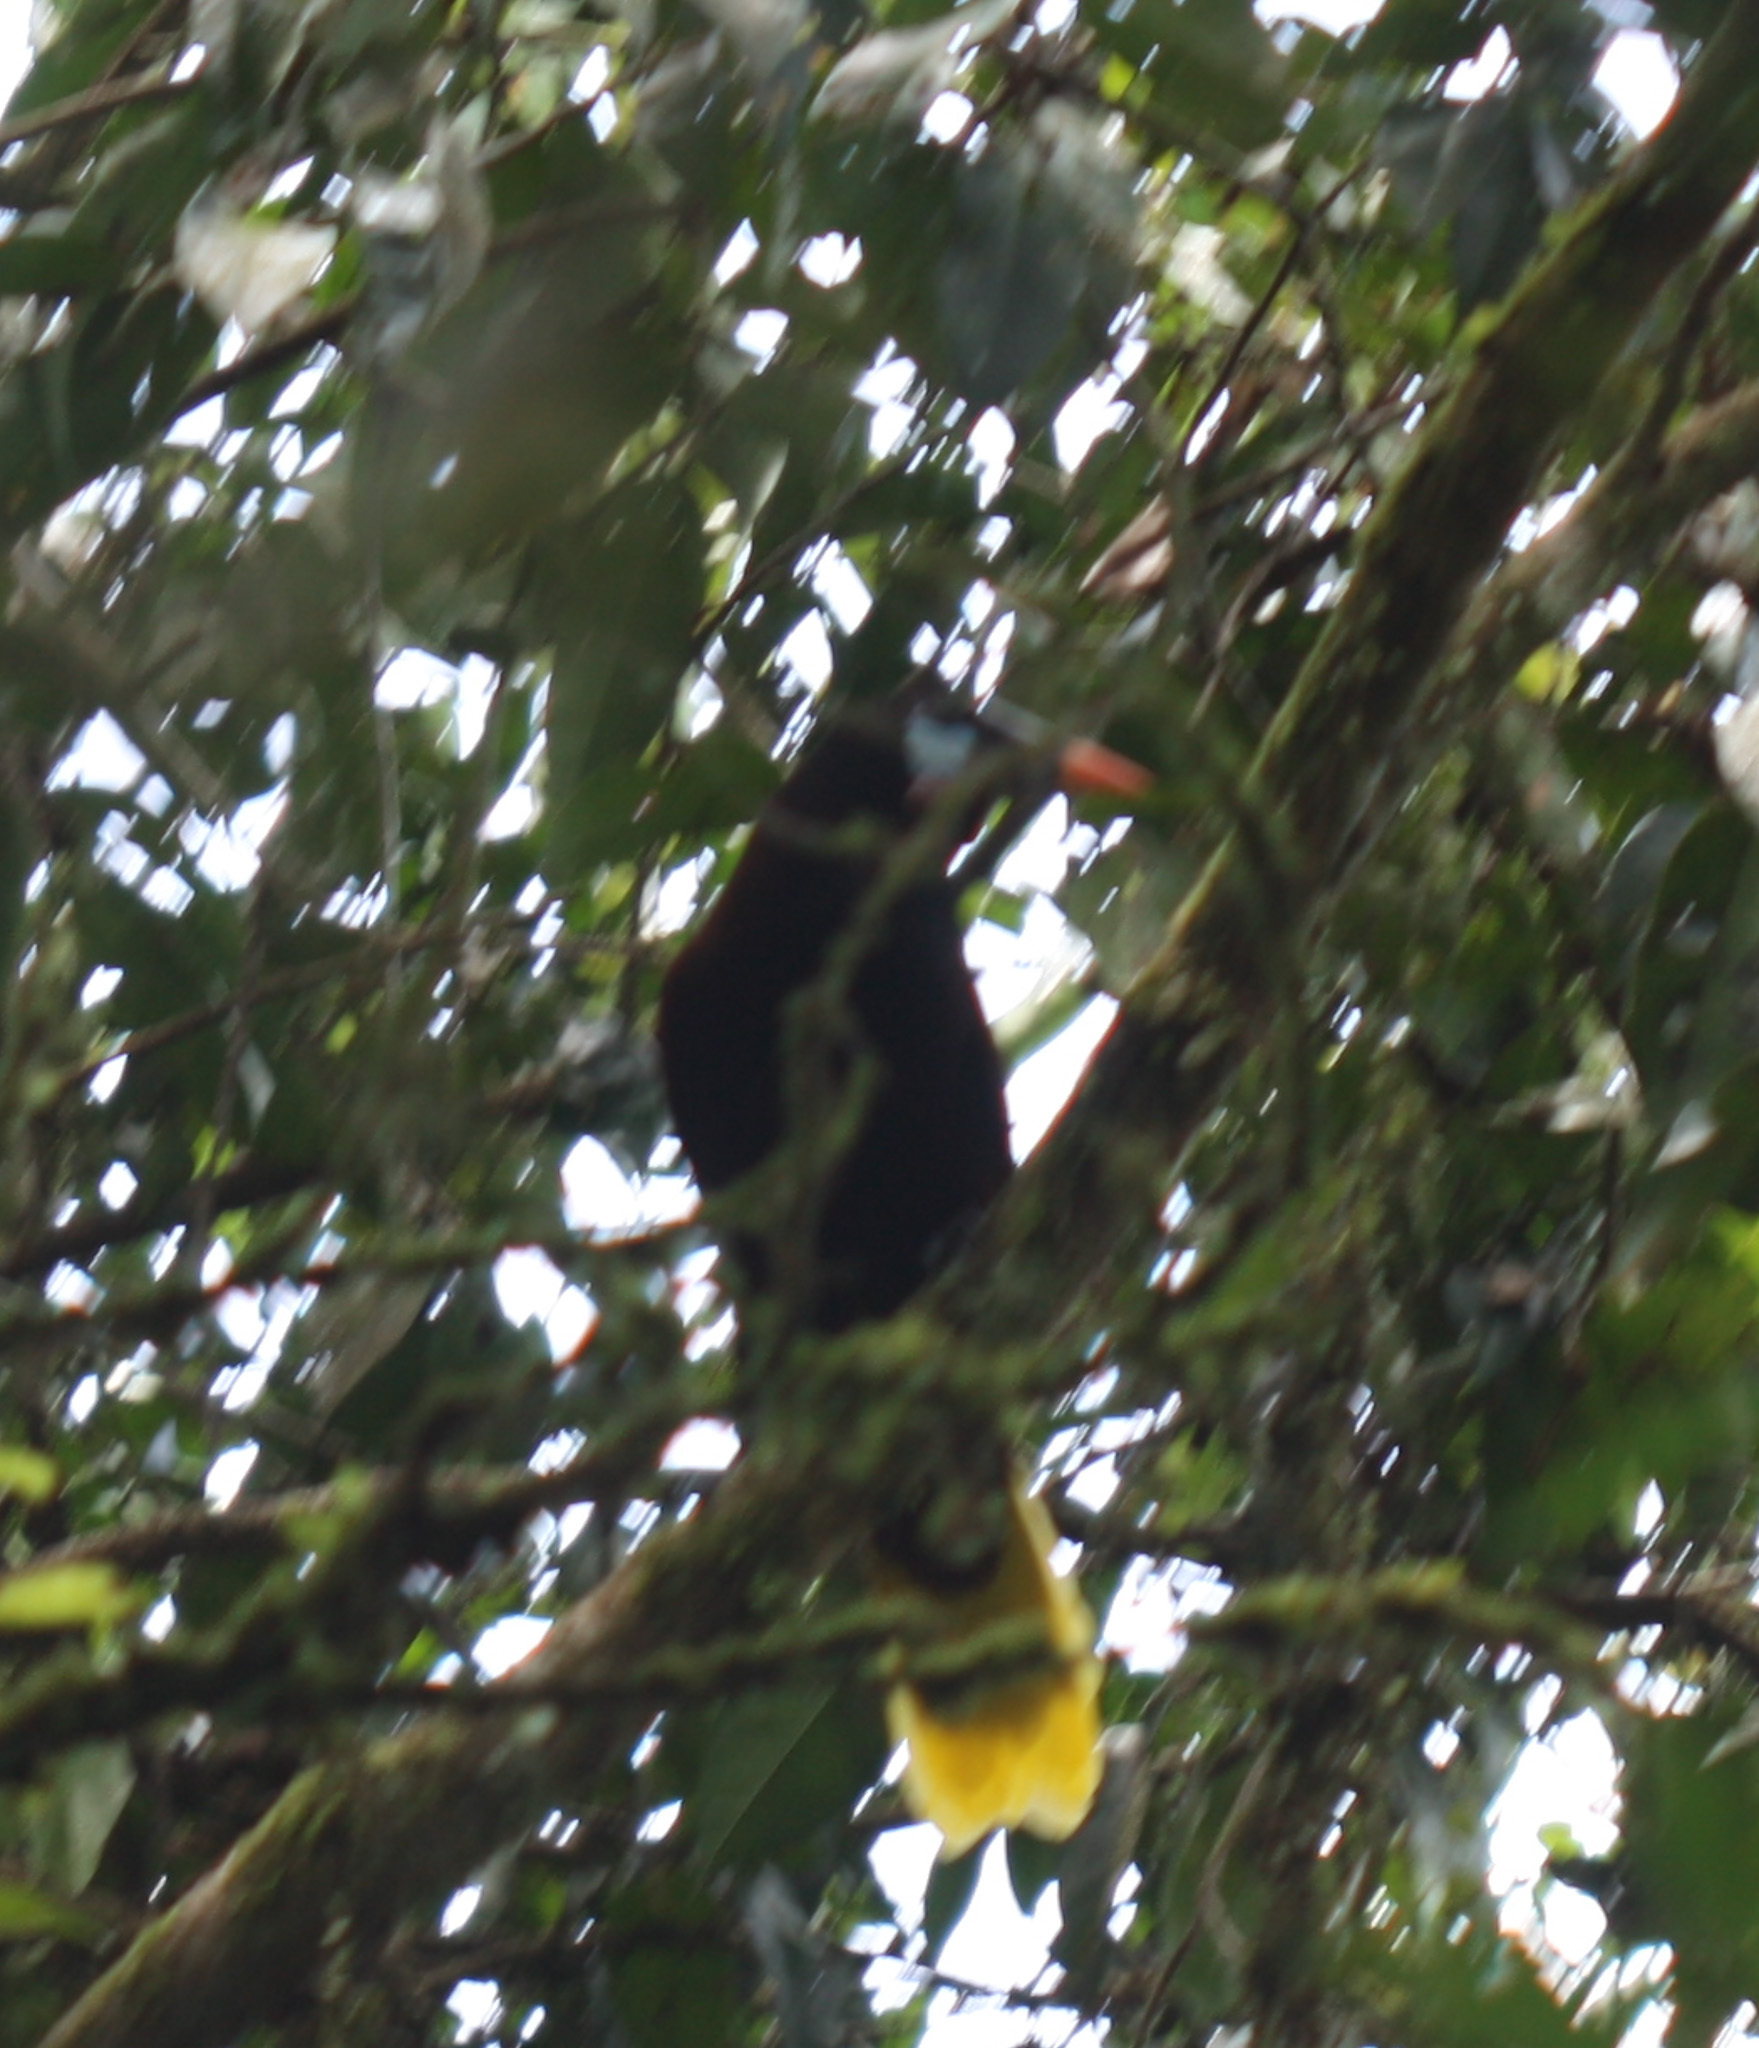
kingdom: Animalia
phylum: Chordata
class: Aves
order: Passeriformes
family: Icteridae
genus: Psarocolius
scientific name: Psarocolius montezuma
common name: Montezuma oropendola
